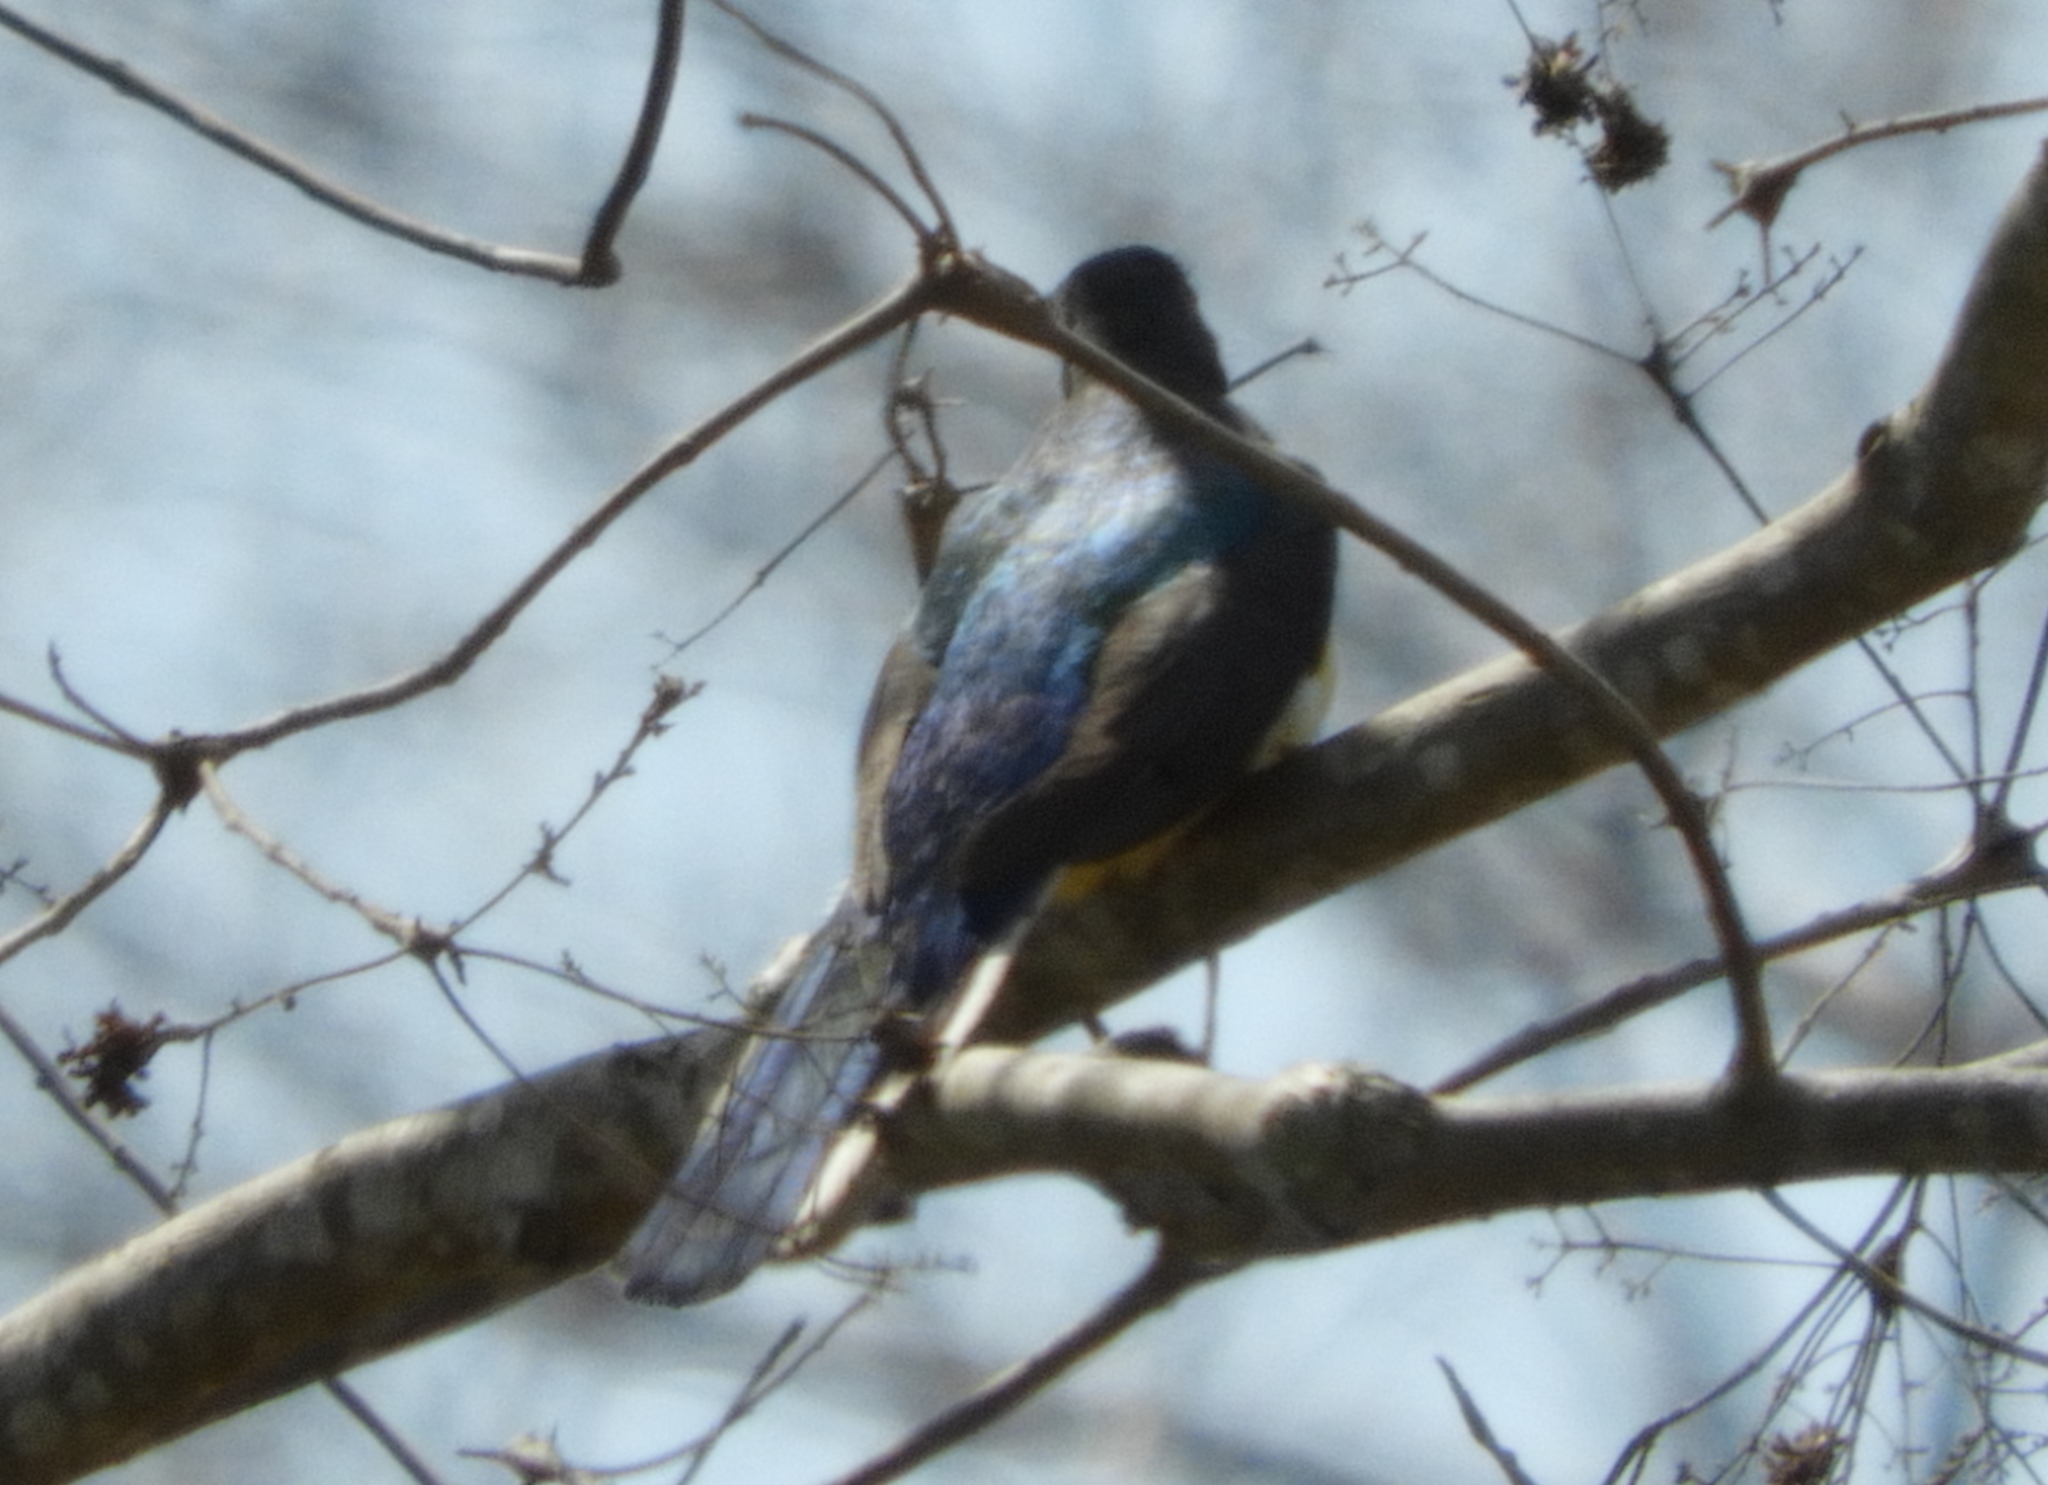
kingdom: Animalia
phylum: Chordata
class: Aves
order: Trogoniformes
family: Trogonidae
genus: Trogon
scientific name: Trogon elegans
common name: Elegant trogon
